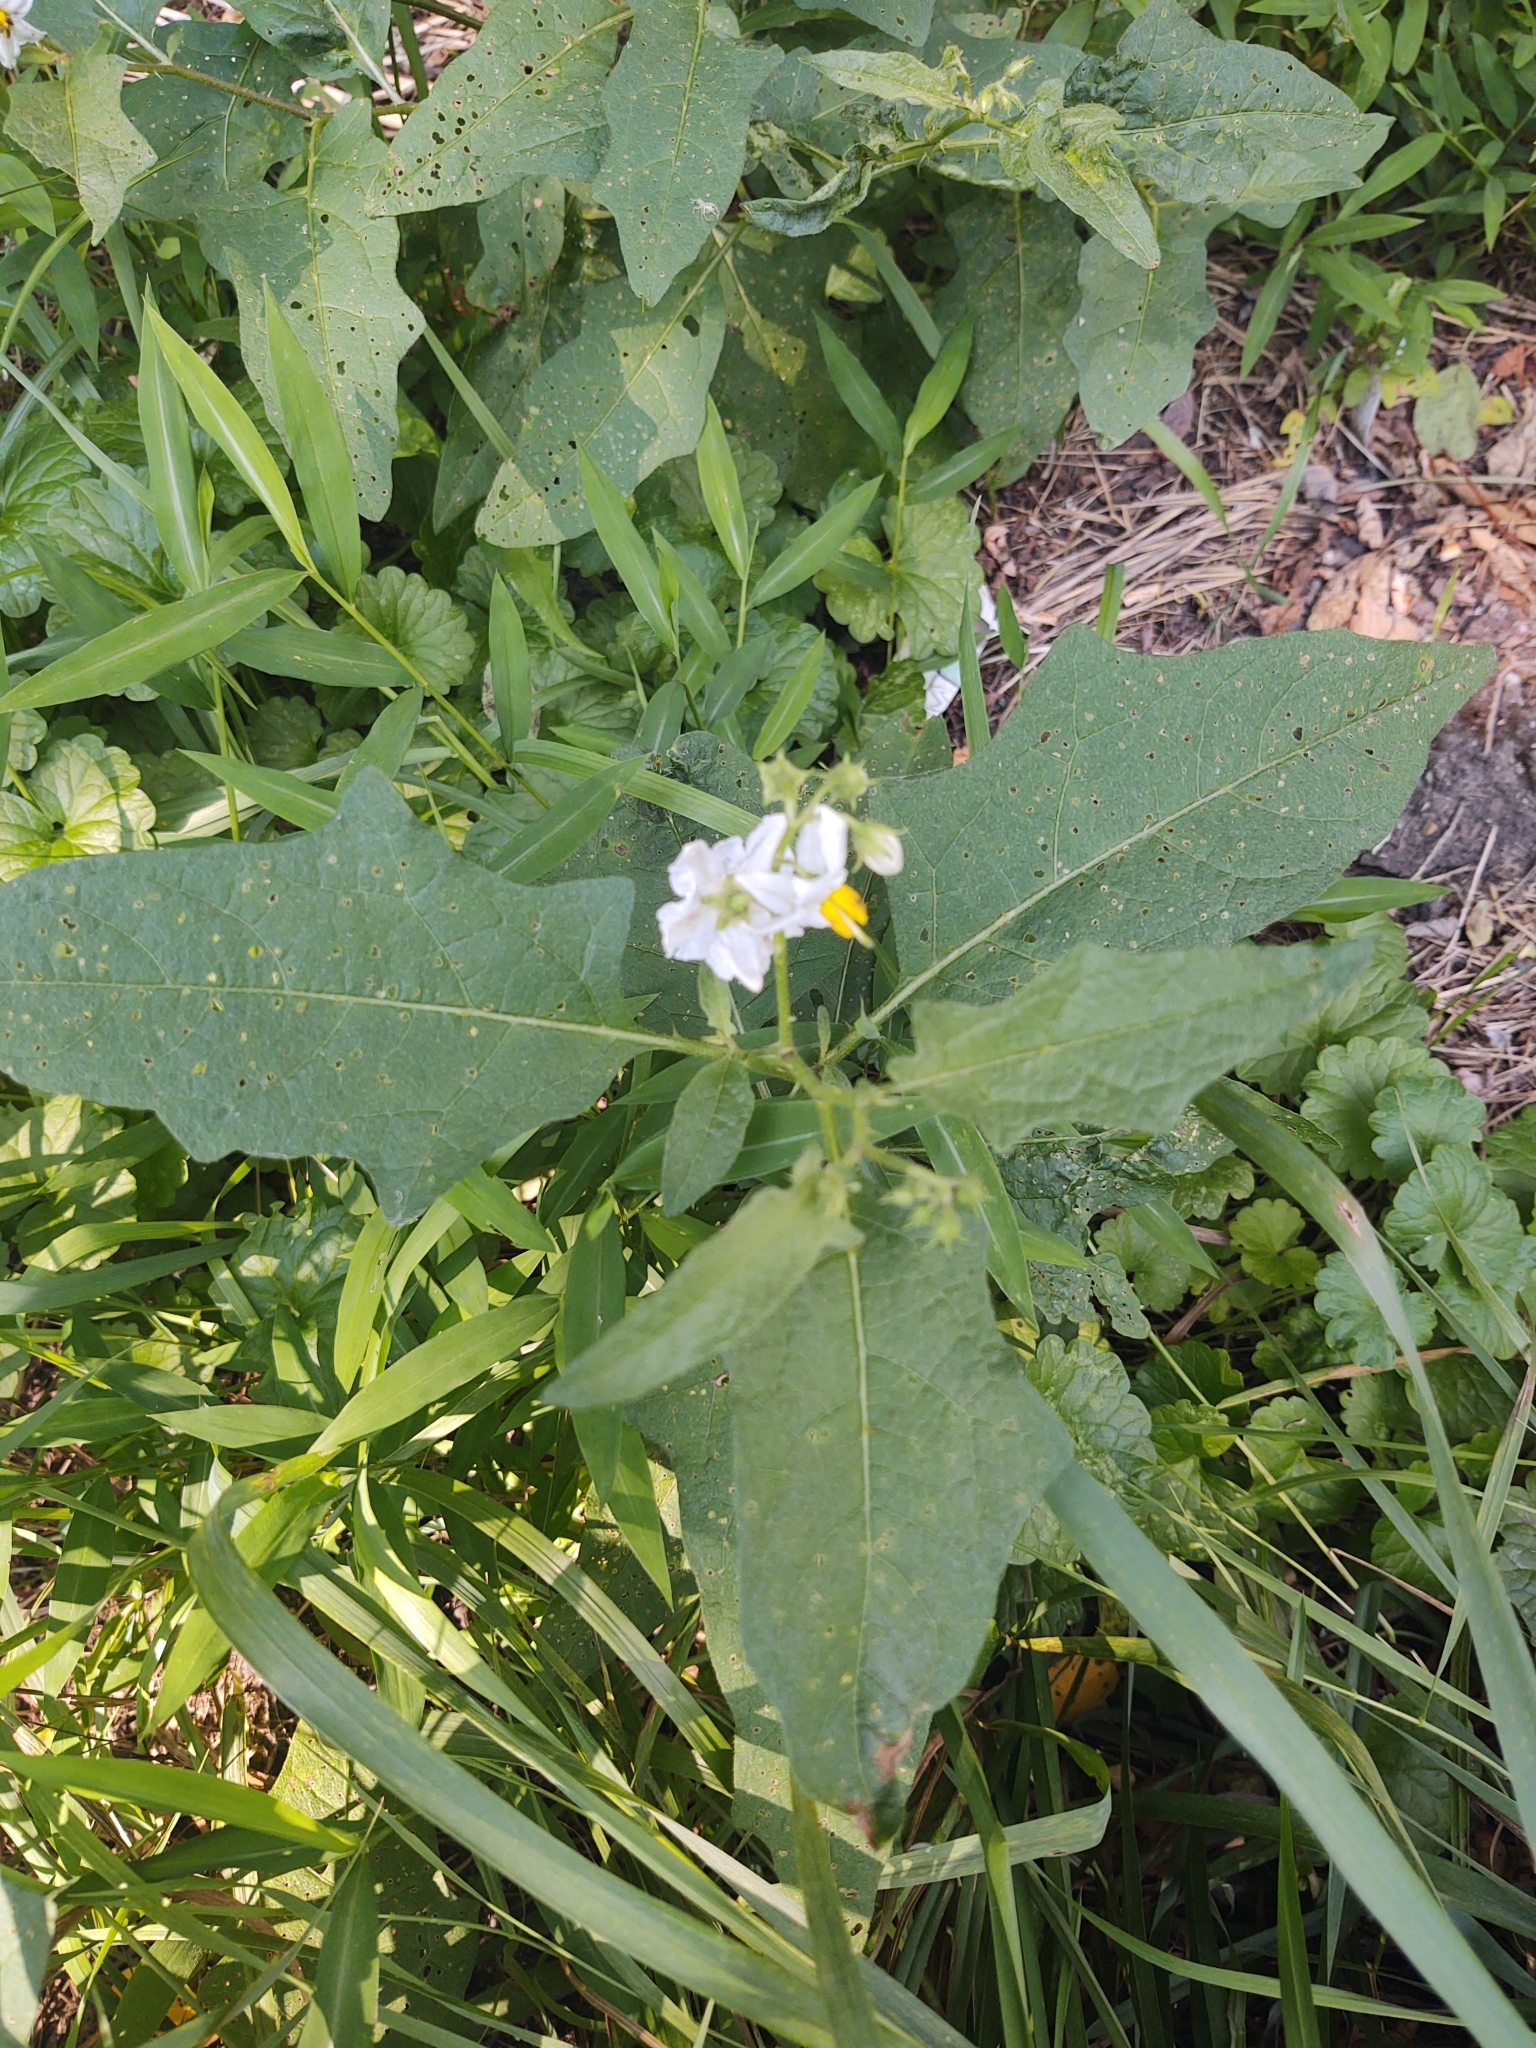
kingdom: Plantae
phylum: Tracheophyta
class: Magnoliopsida
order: Solanales
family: Solanaceae
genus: Solanum
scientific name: Solanum carolinense
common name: Horse-nettle
